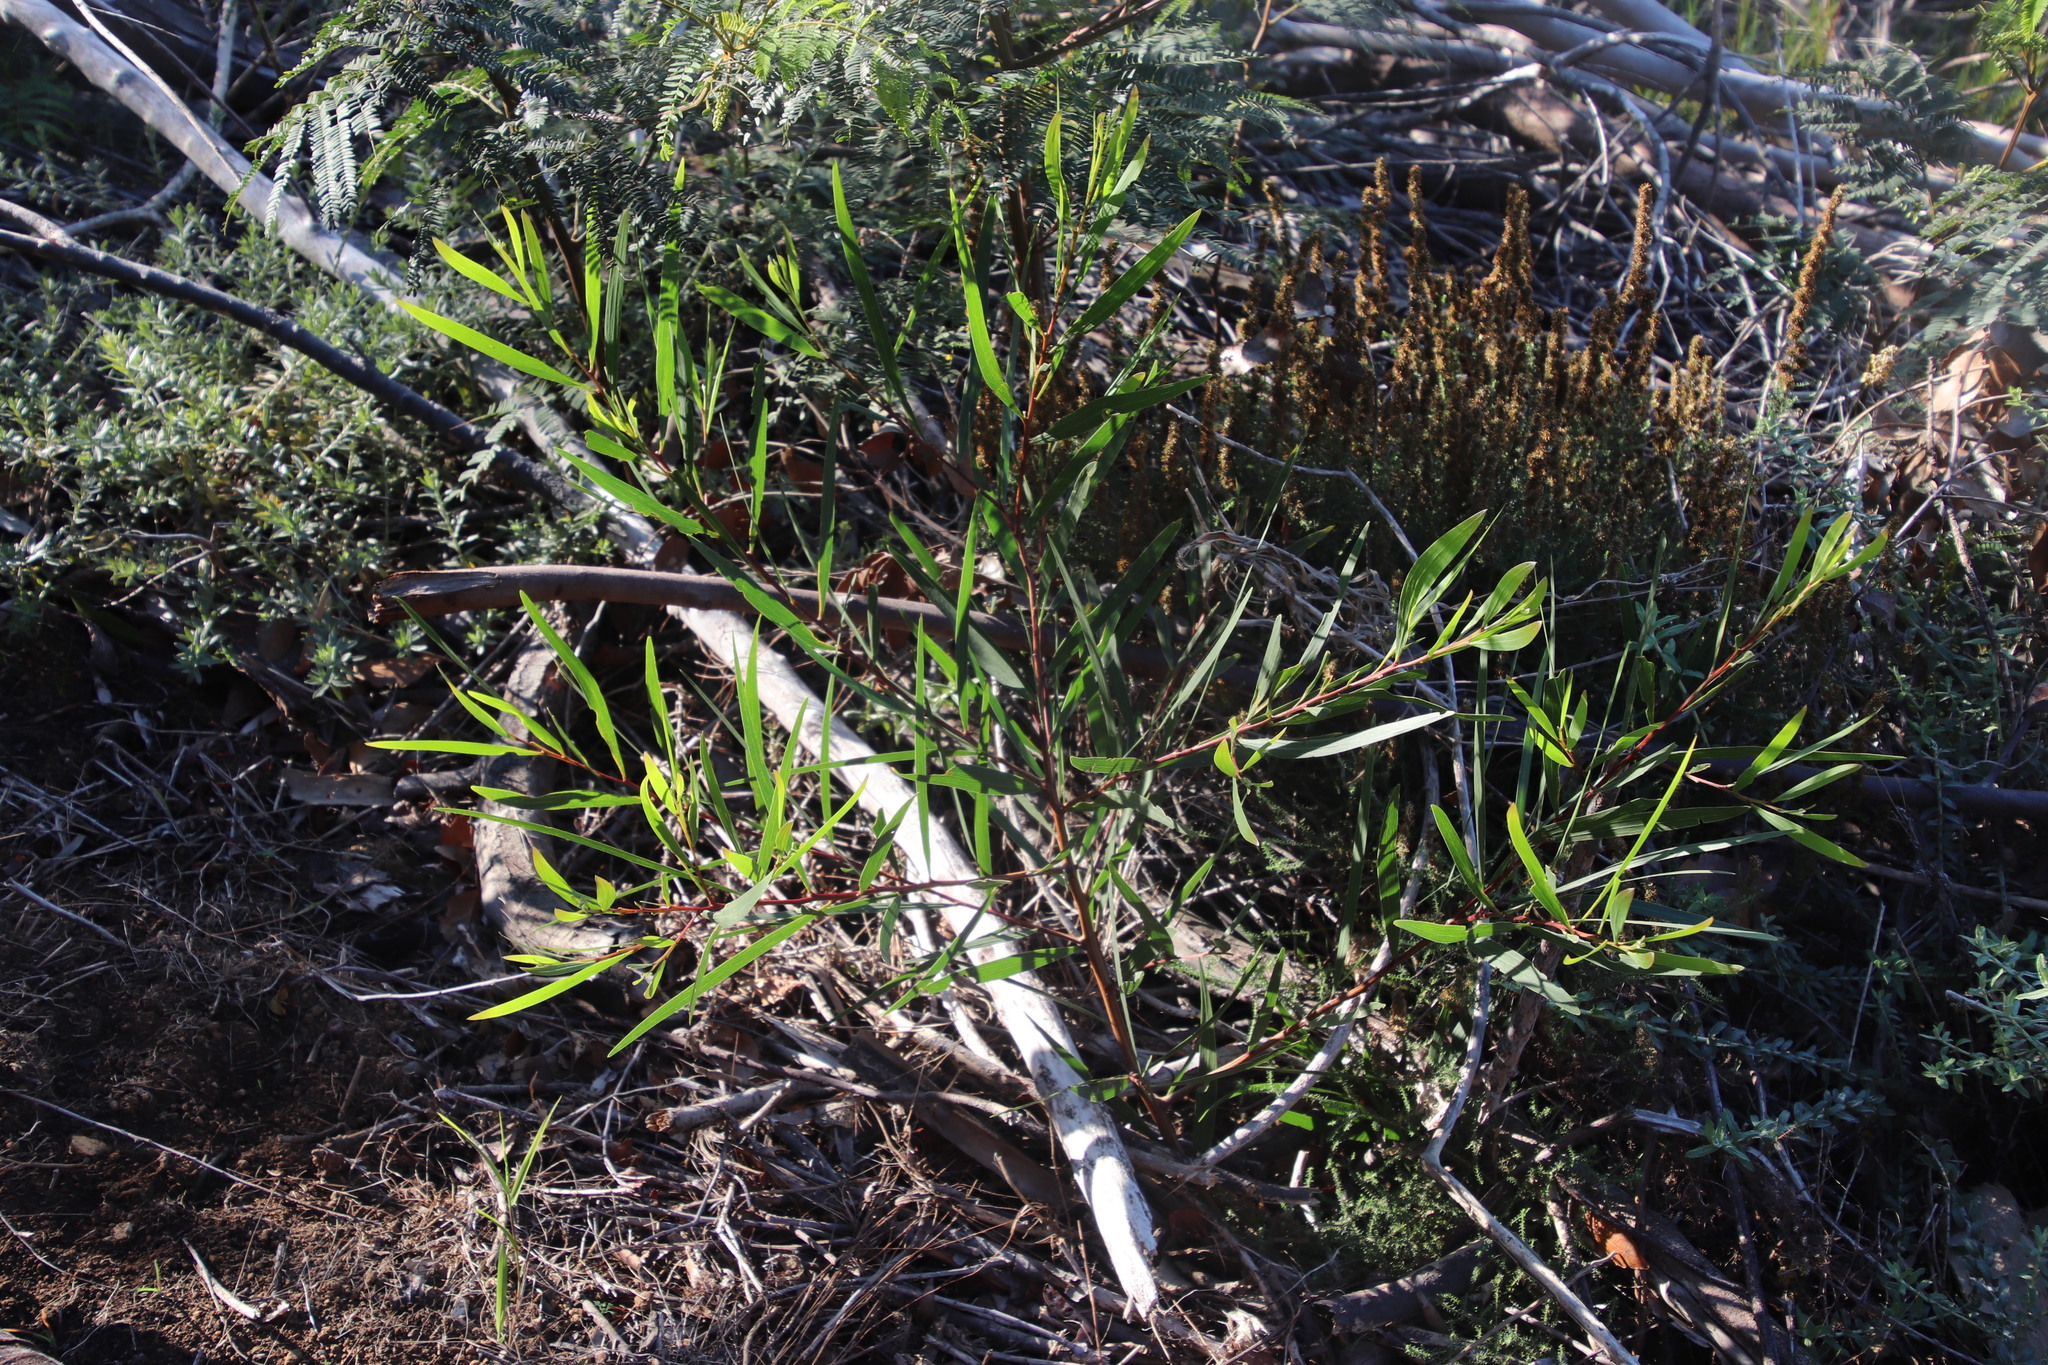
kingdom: Plantae
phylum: Tracheophyta
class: Magnoliopsida
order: Fabales
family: Fabaceae
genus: Acacia
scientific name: Acacia longifolia
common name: Sydney golden wattle
